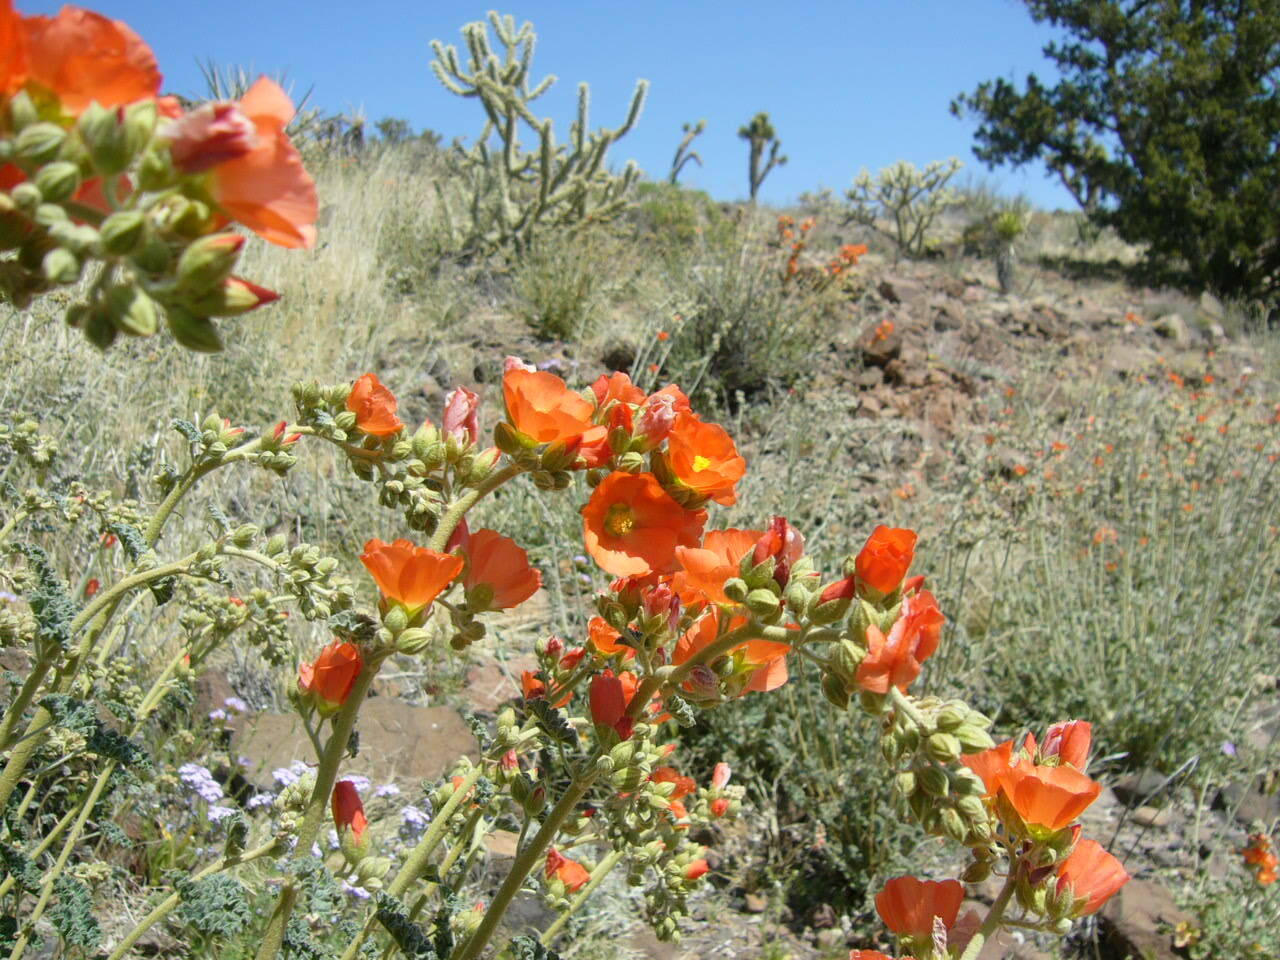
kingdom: Plantae
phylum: Tracheophyta
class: Magnoliopsida
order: Malvales
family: Malvaceae
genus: Sphaeralcea
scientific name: Sphaeralcea ambigua
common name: Apricot globe-mallow
